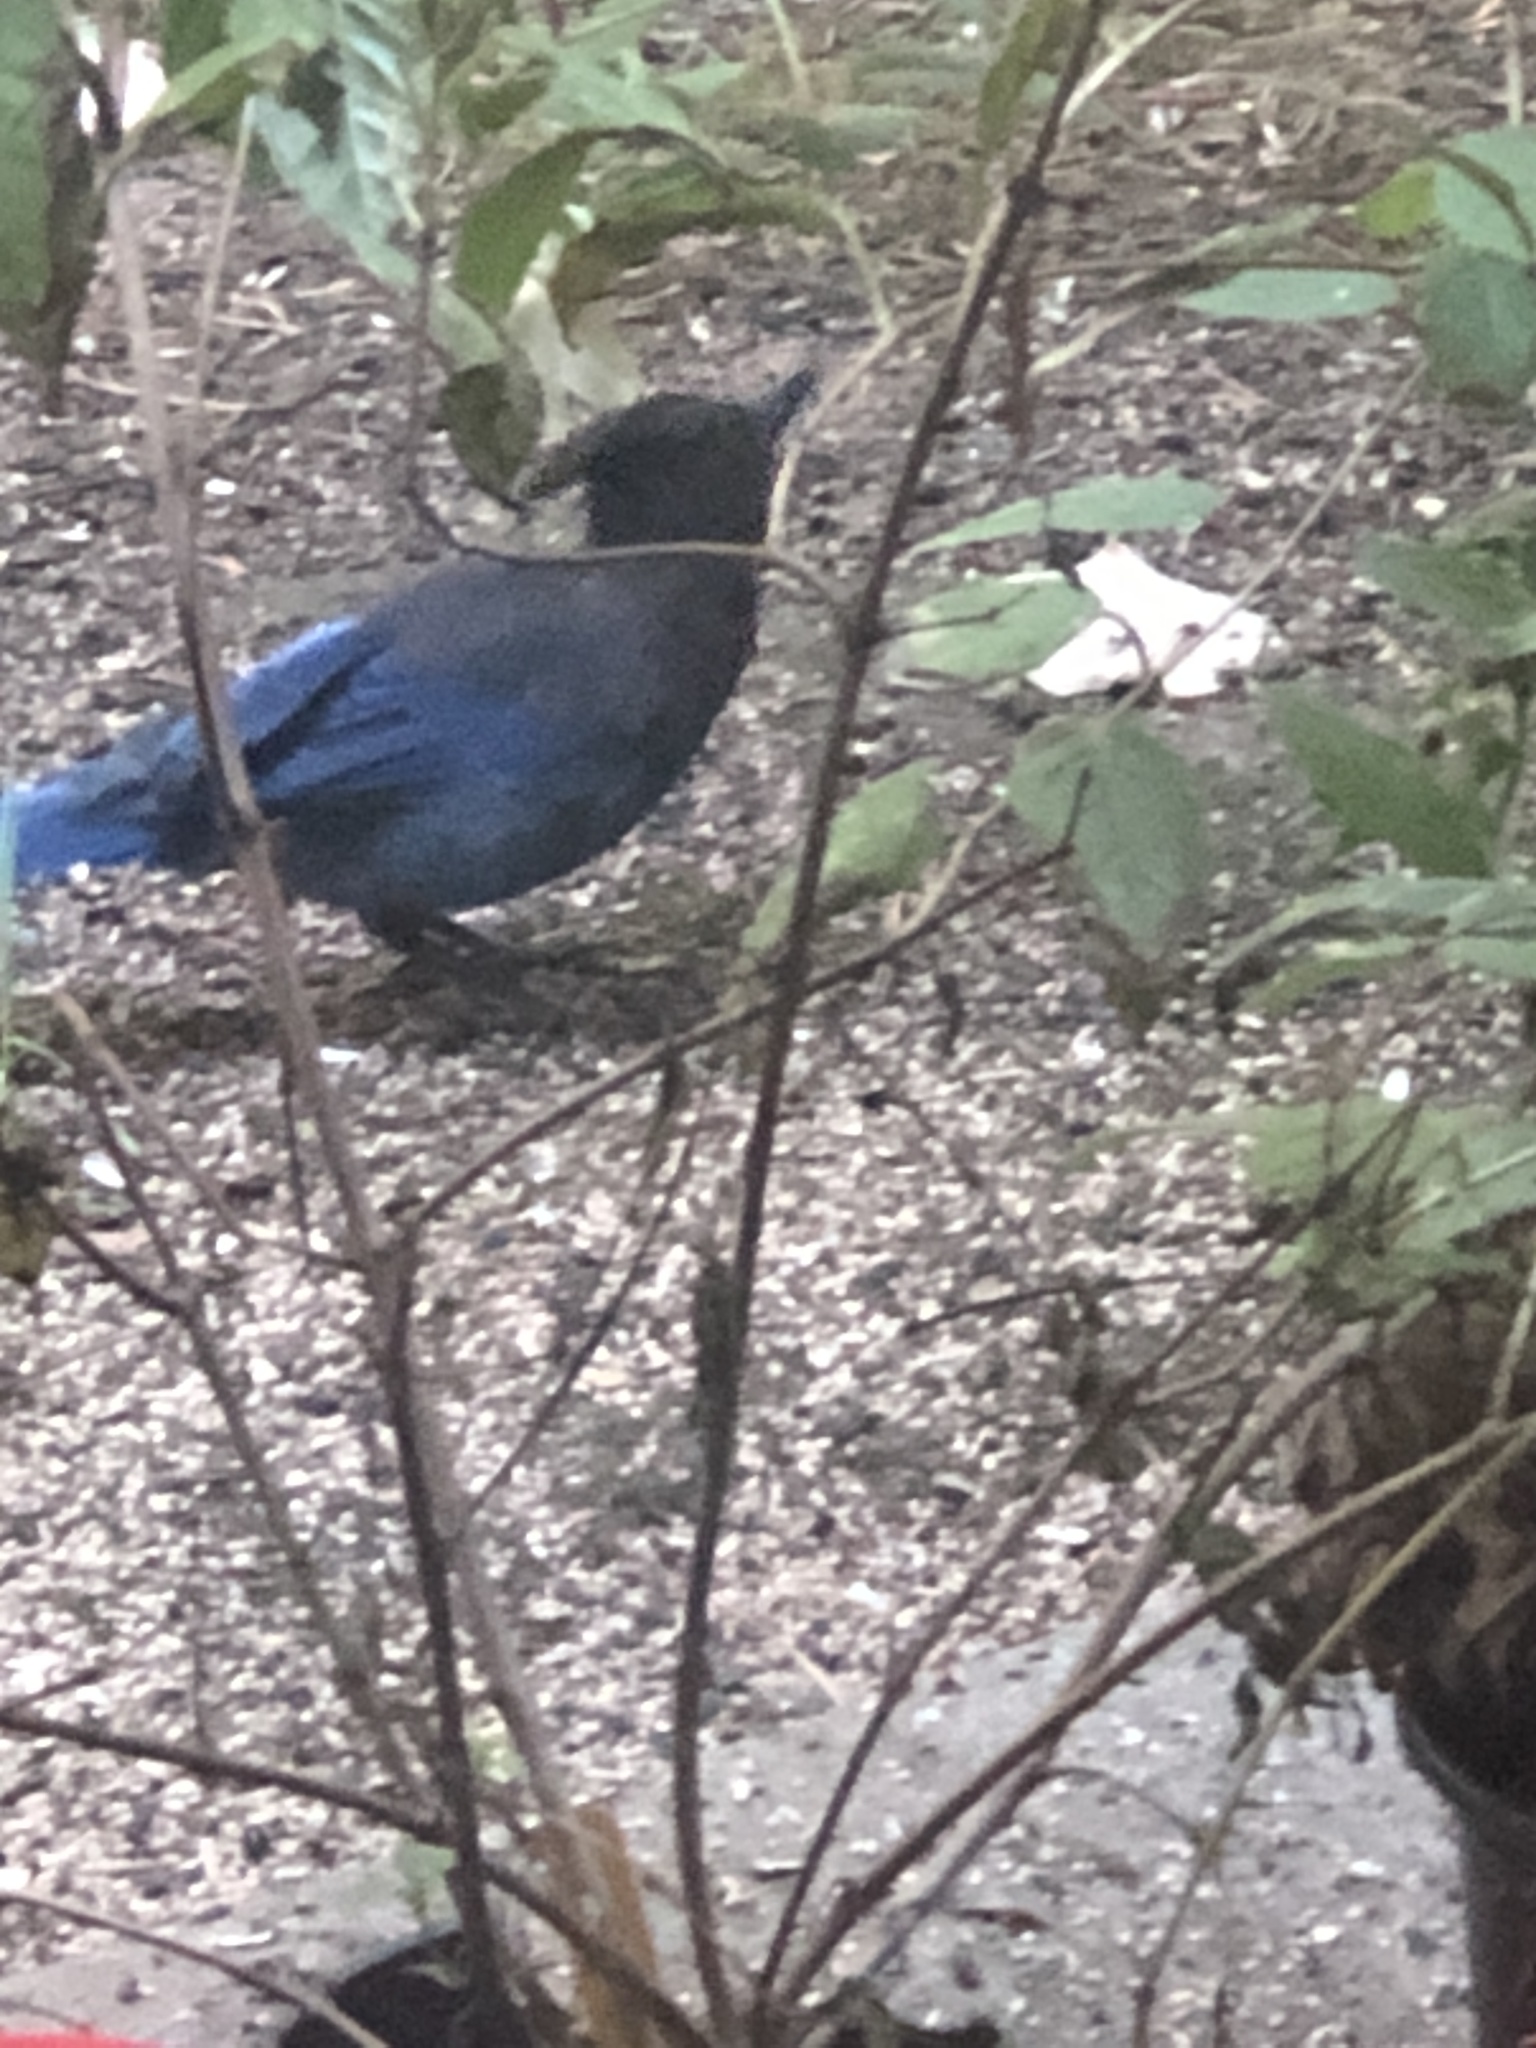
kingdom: Animalia
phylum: Chordata
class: Aves
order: Passeriformes
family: Corvidae
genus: Cyanocitta
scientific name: Cyanocitta stelleri
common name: Steller's jay
